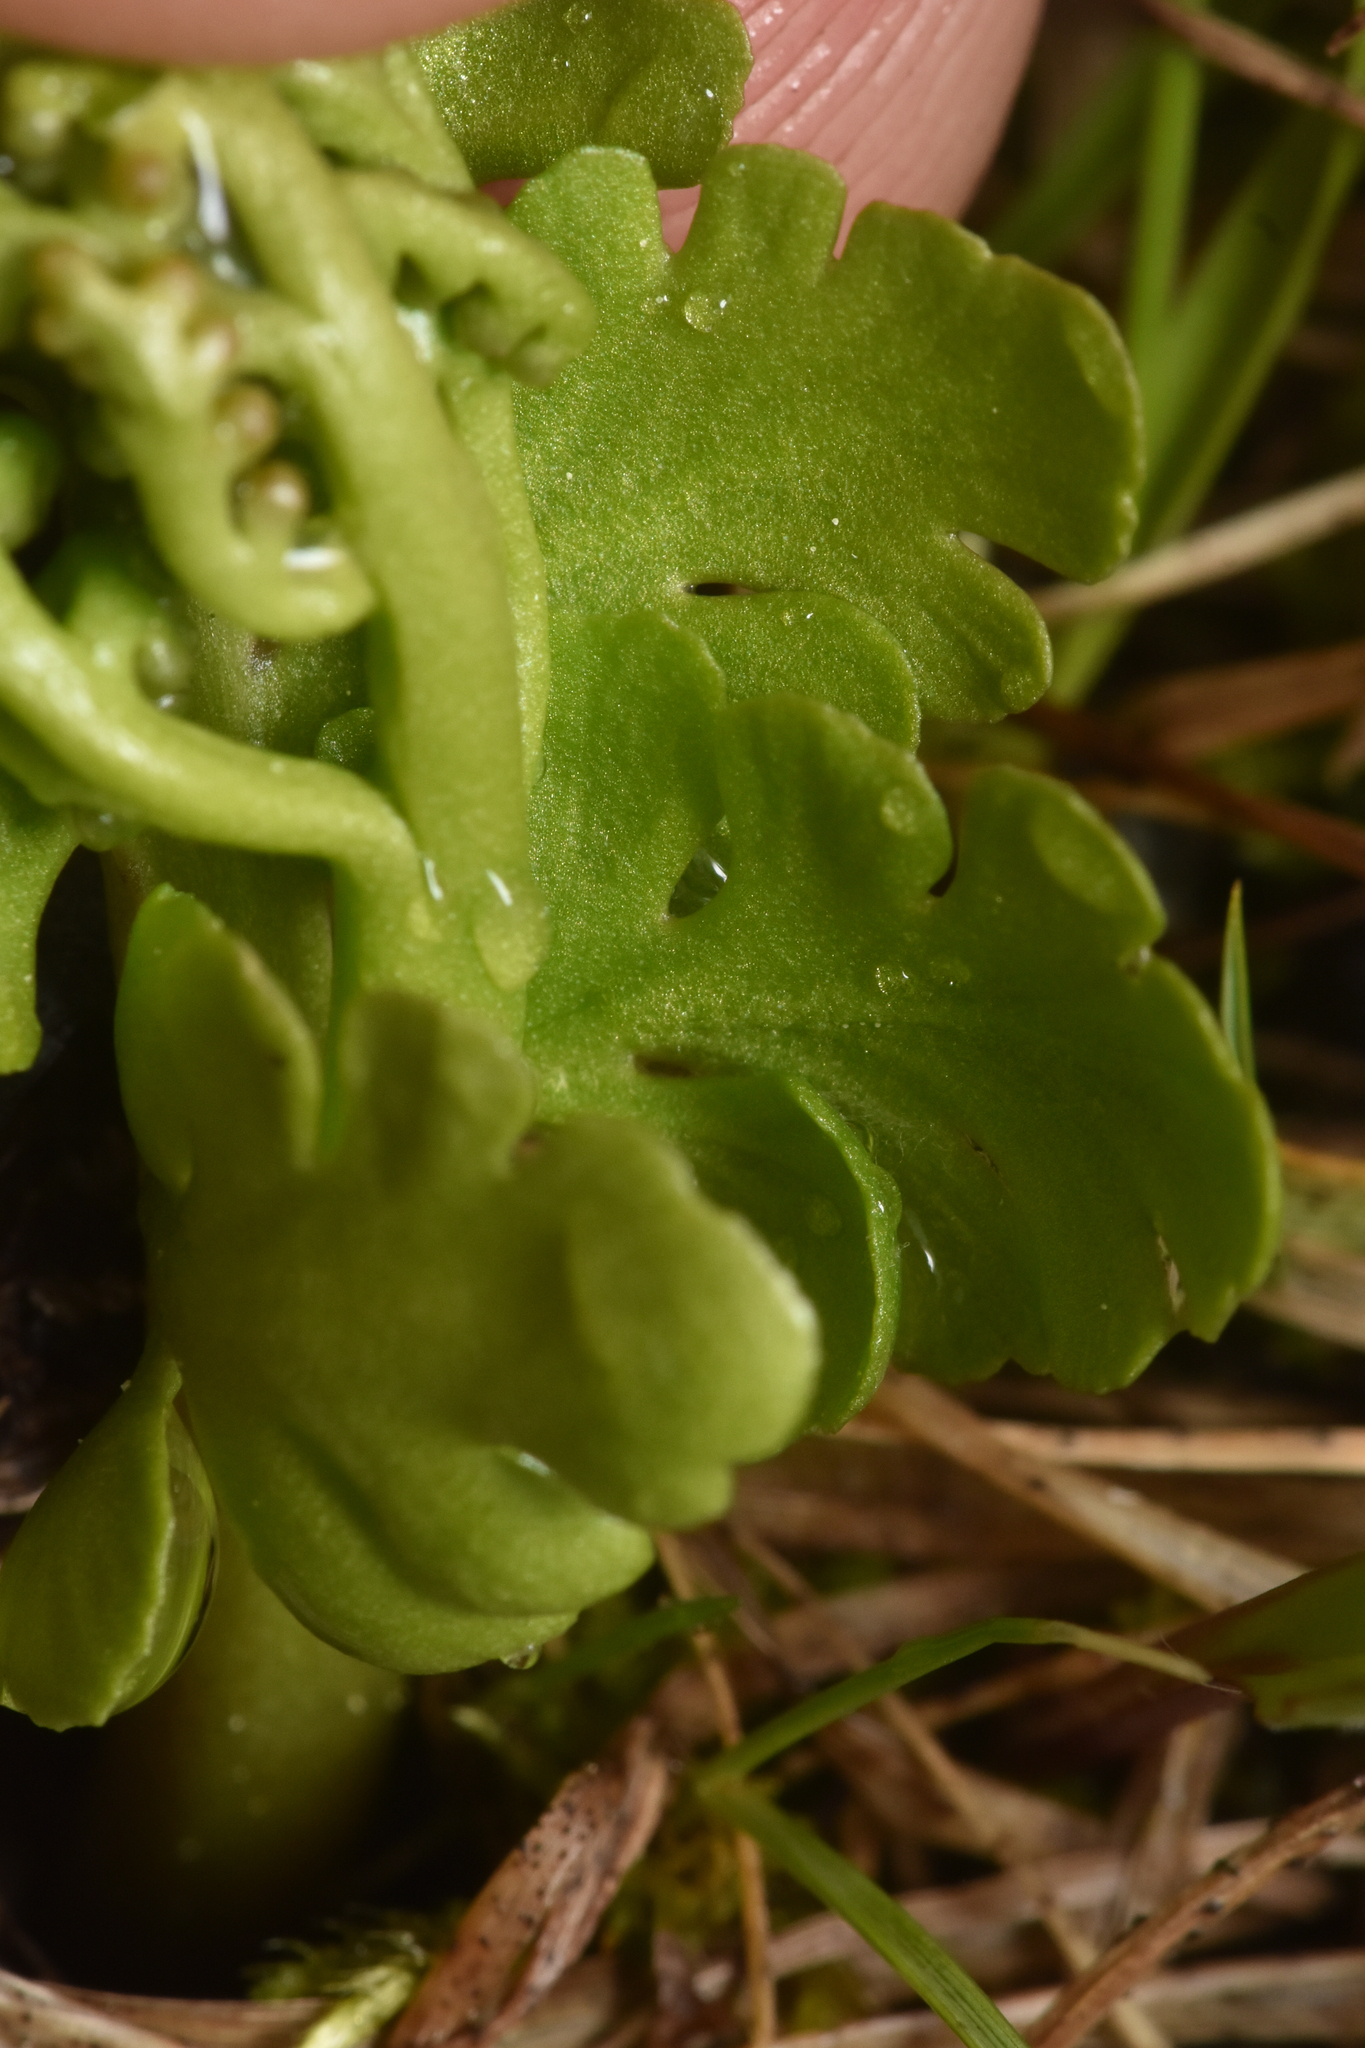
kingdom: Plantae
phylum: Tracheophyta
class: Polypodiopsida
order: Ophioglossales
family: Ophioglossaceae
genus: Botrychium
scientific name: Botrychium pinnatum
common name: Northwestern moonwort
